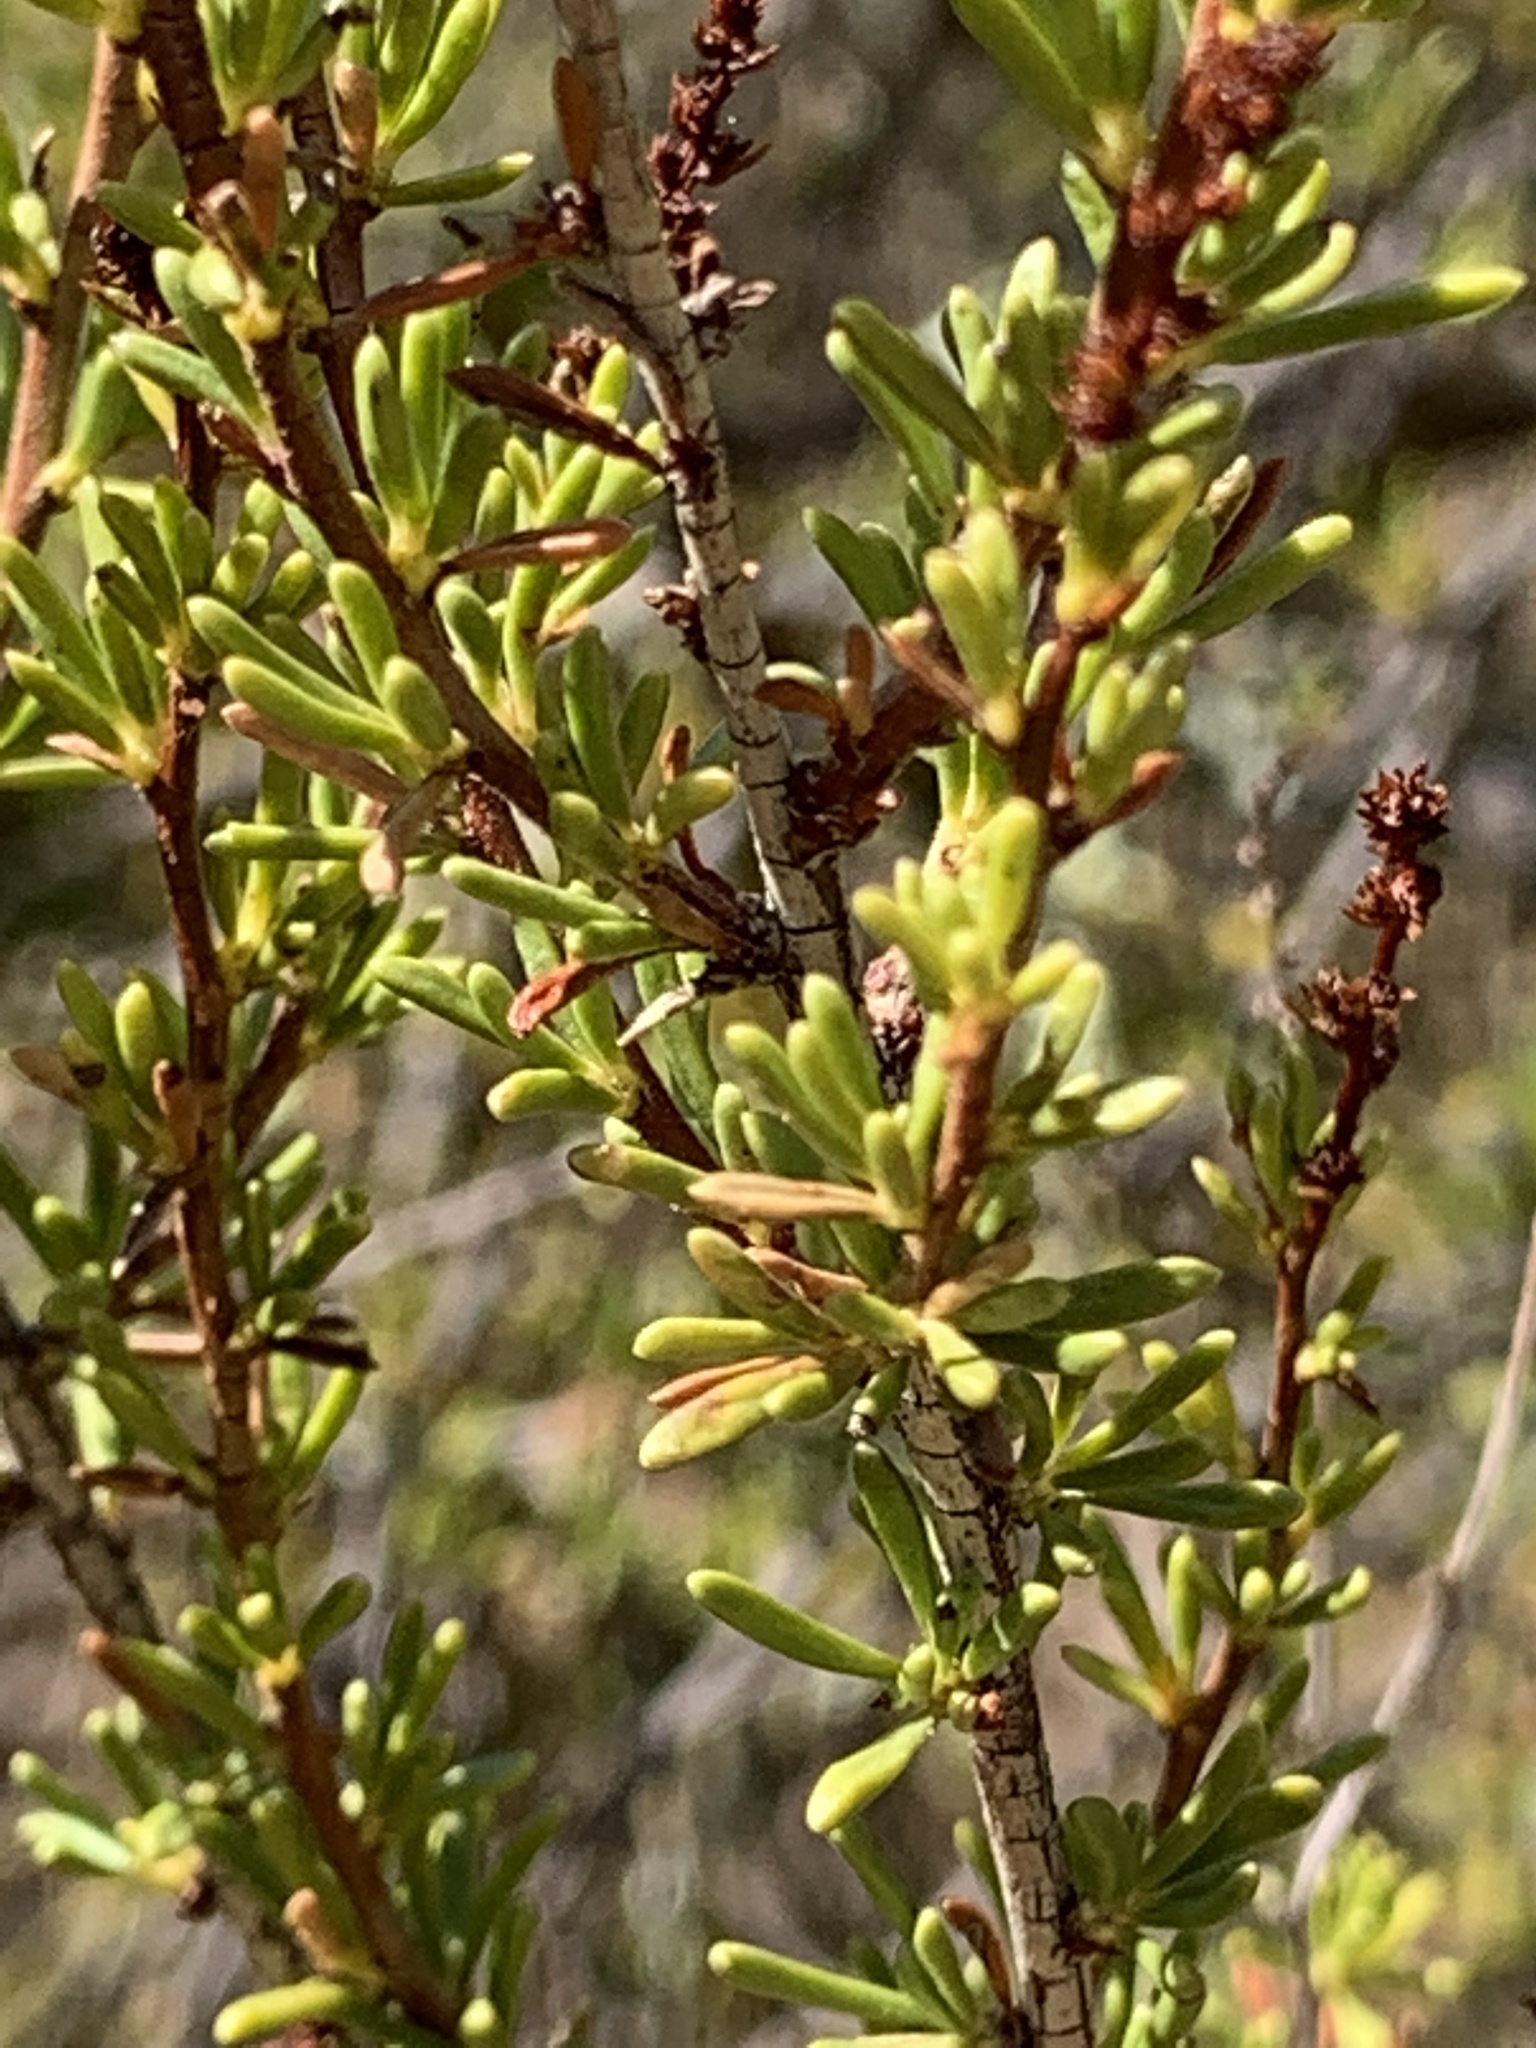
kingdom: Plantae
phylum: Tracheophyta
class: Magnoliopsida
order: Rosales
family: Rosaceae
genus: Adenostoma
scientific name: Adenostoma fasciculatum
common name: Chamise
